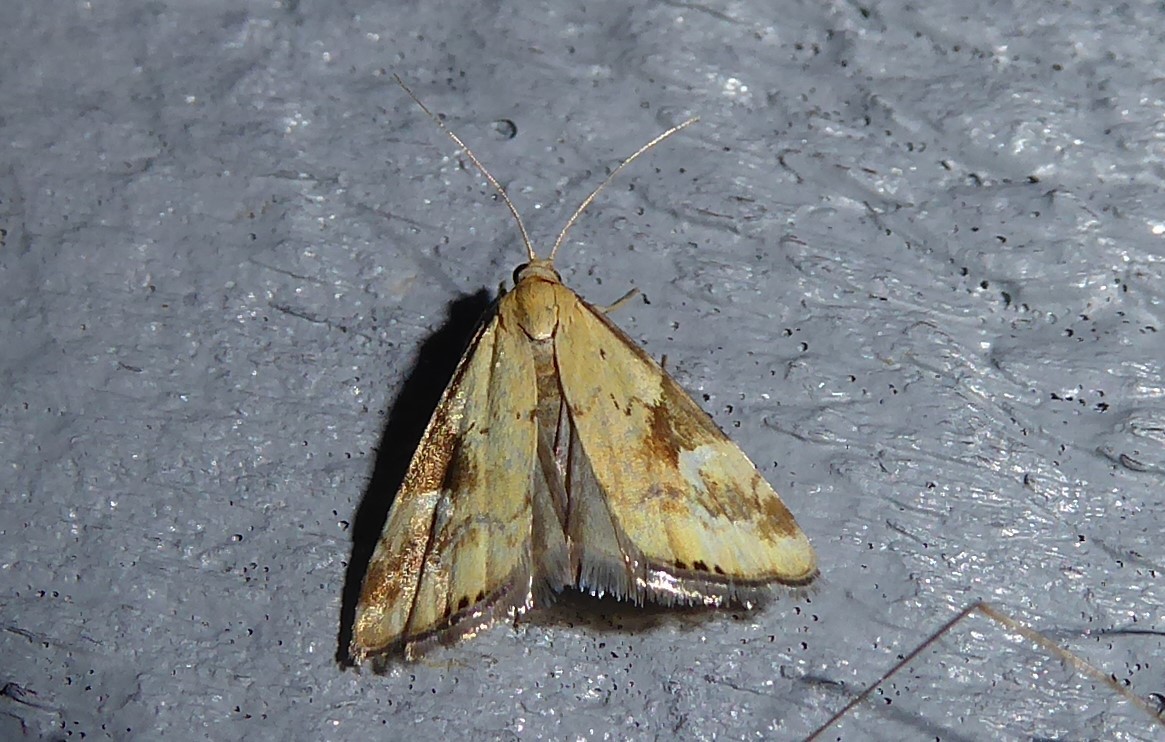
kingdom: Animalia
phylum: Arthropoda
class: Insecta
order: Lepidoptera
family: Crambidae
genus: Glaucocharis
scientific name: Glaucocharis lepidella
